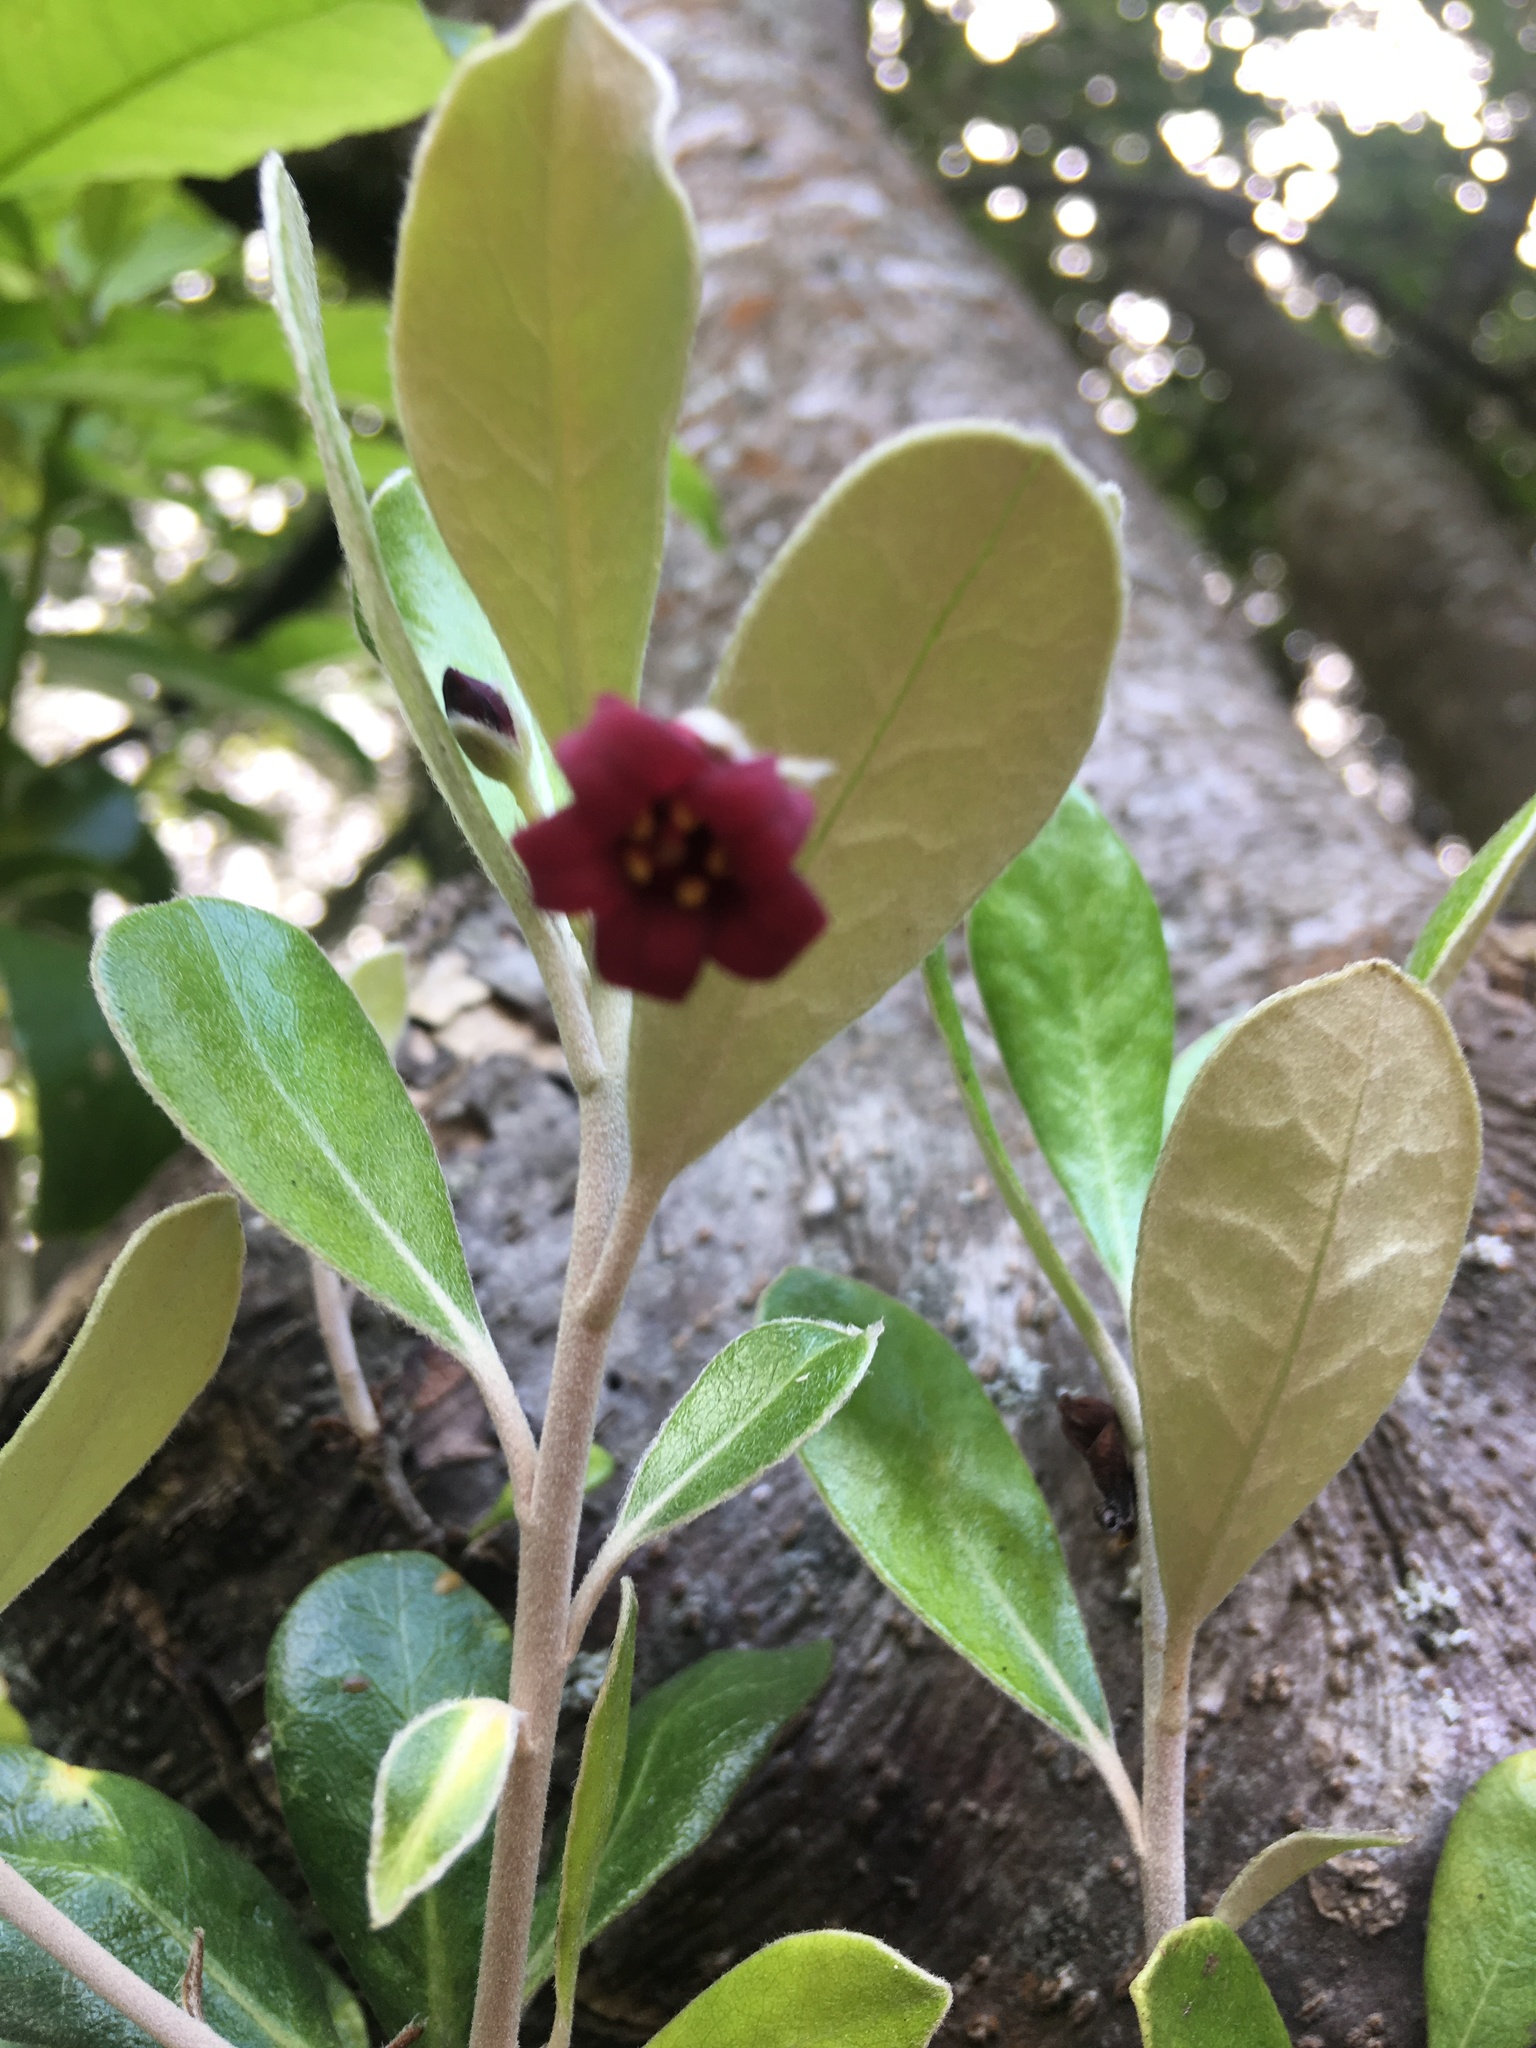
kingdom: Plantae
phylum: Tracheophyta
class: Magnoliopsida
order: Apiales
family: Pittosporaceae
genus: Pittosporum
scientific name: Pittosporum crassifolium
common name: Karo
